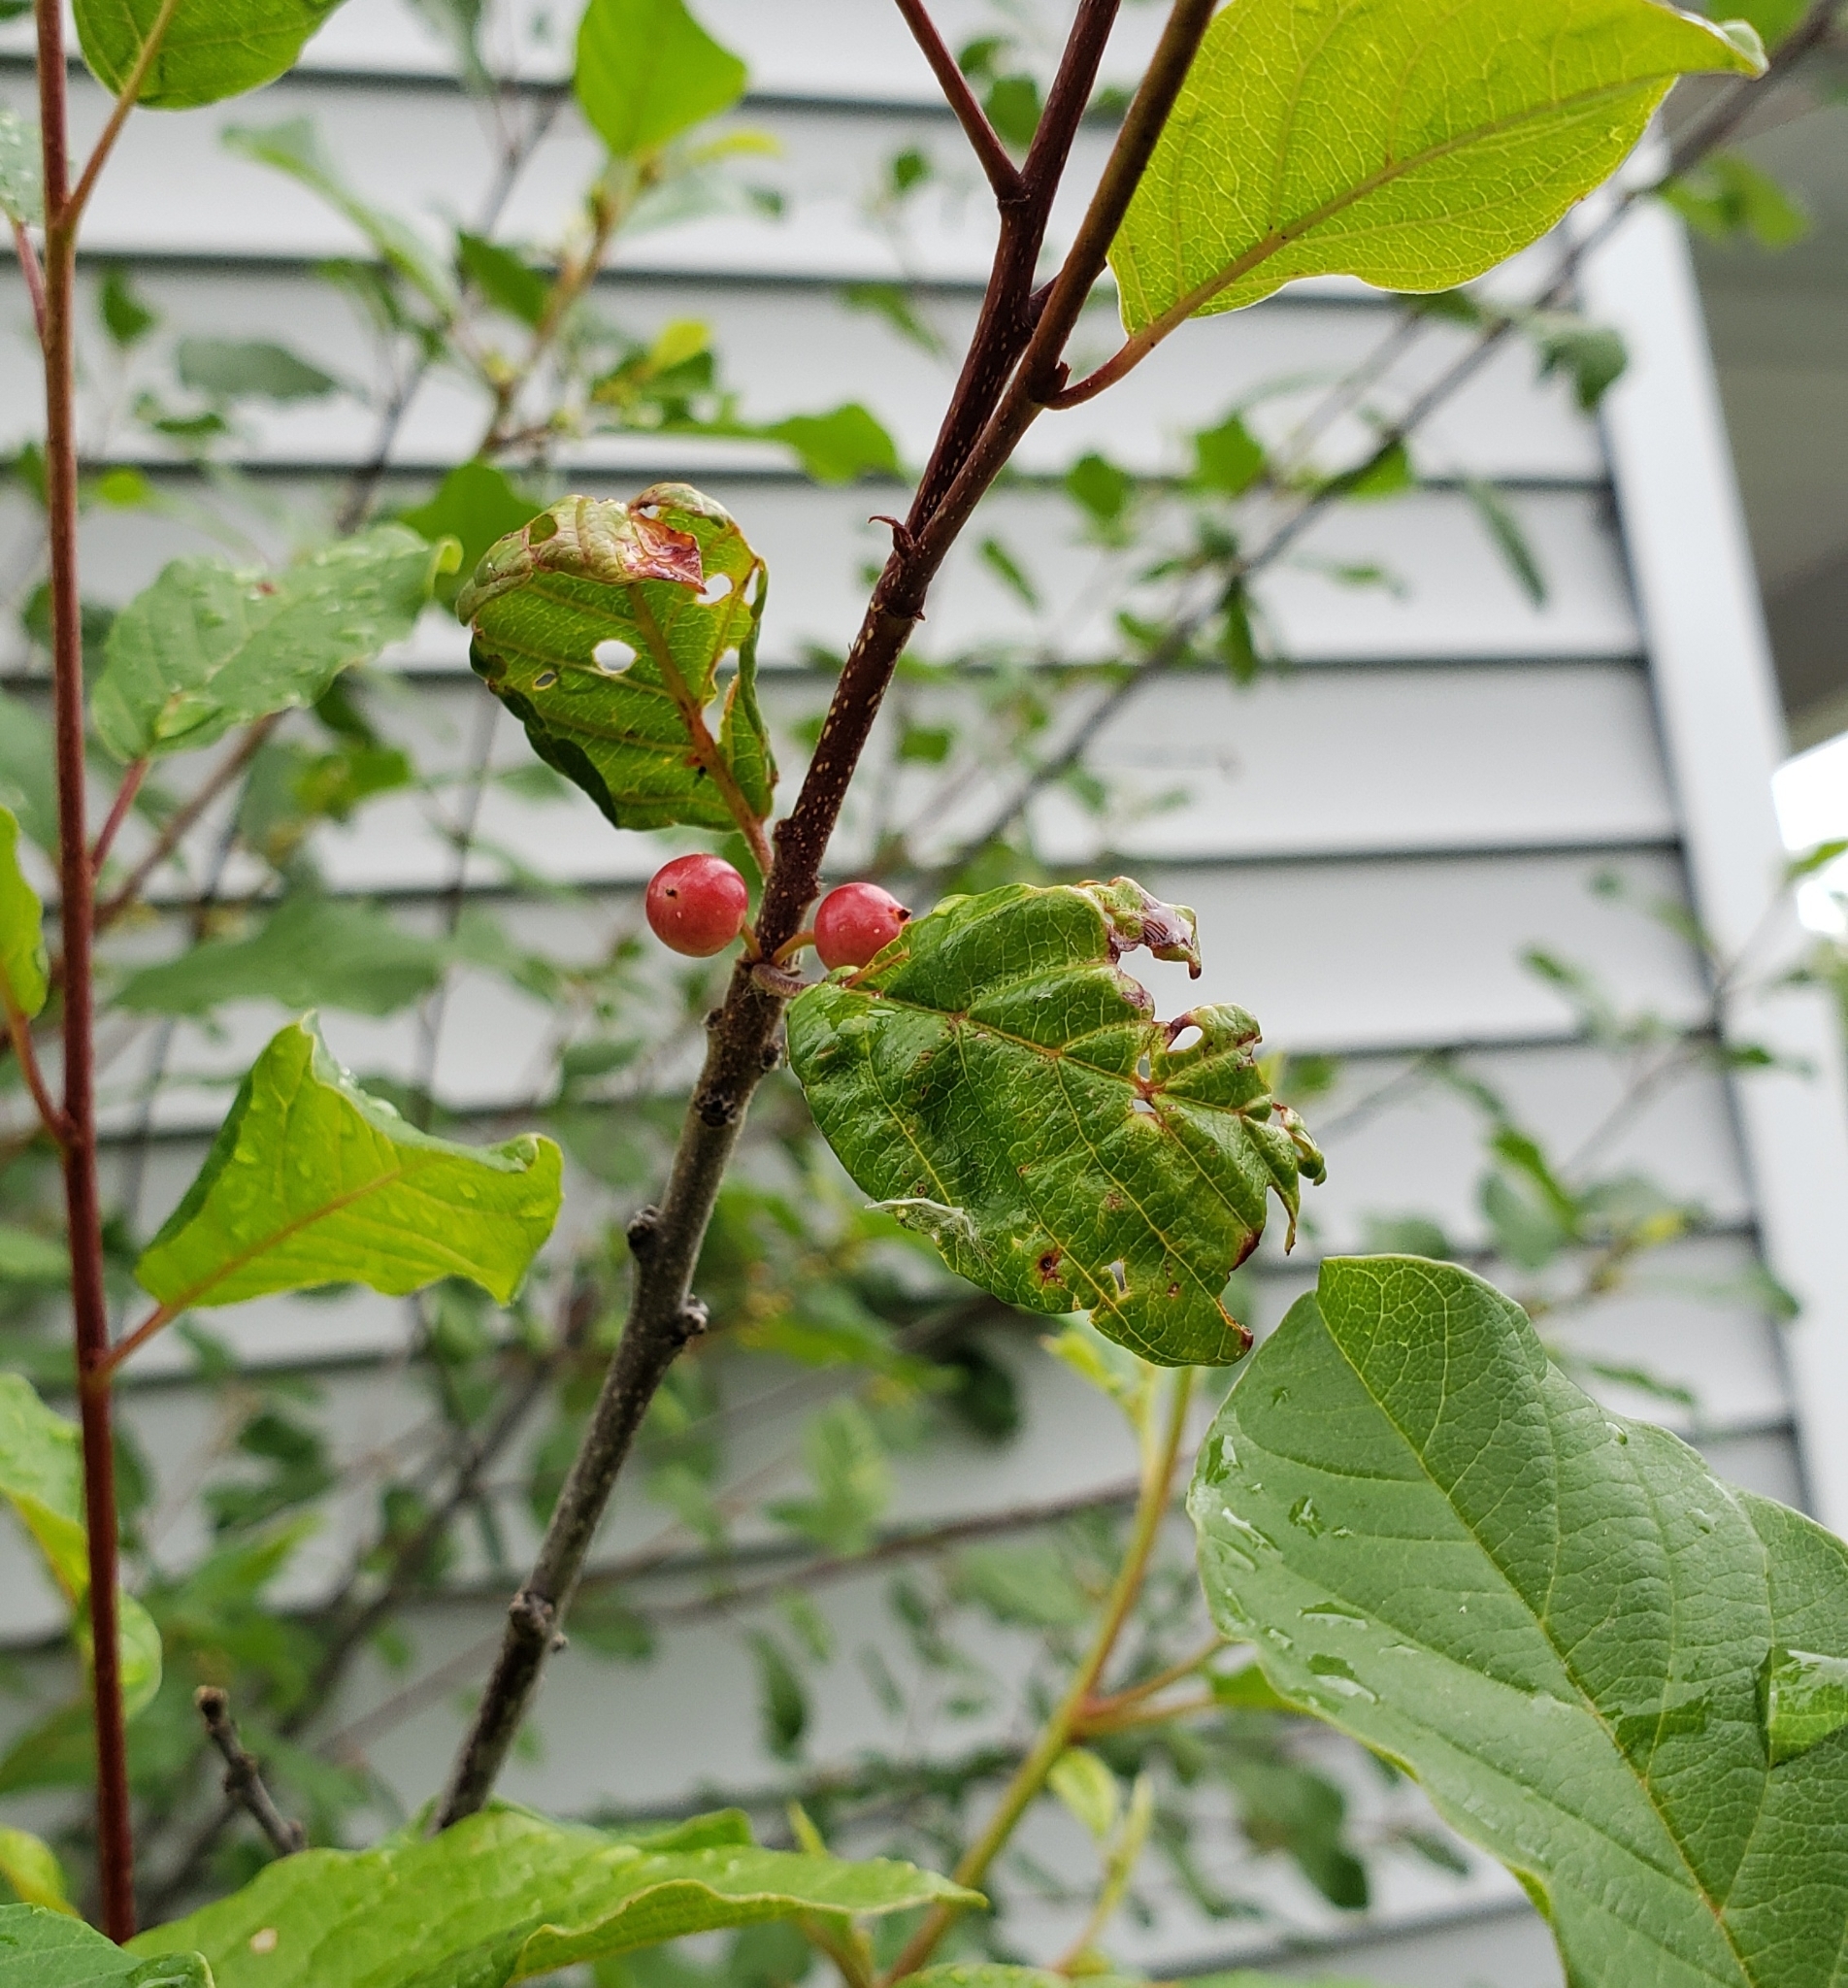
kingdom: Plantae
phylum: Tracheophyta
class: Magnoliopsida
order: Rosales
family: Rhamnaceae
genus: Frangula
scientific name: Frangula alnus
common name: Alder buckthorn
